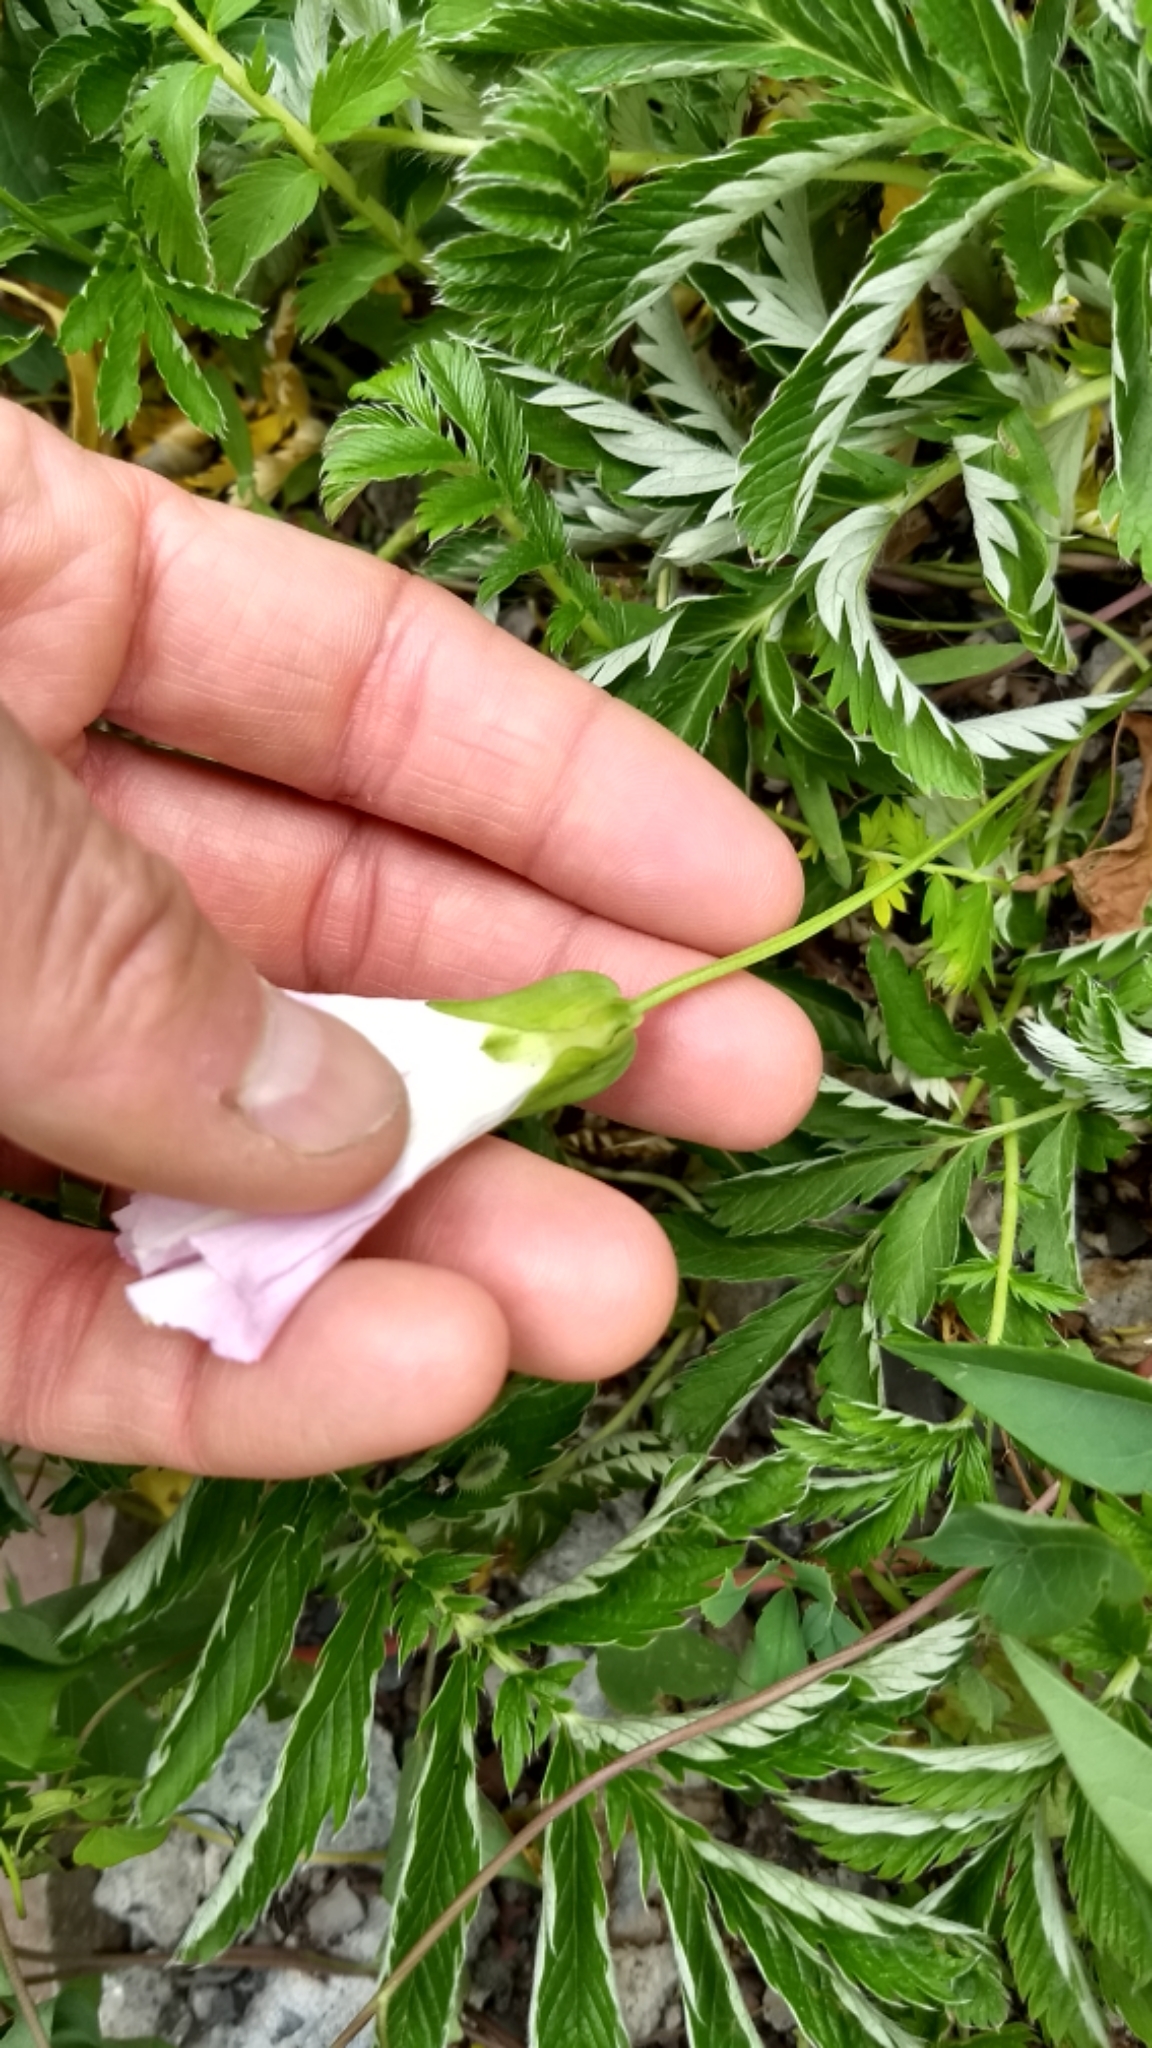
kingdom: Plantae
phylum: Tracheophyta
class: Magnoliopsida
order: Solanales
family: Convolvulaceae
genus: Calystegia
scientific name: Calystegia sepium
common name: Hedge bindweed
